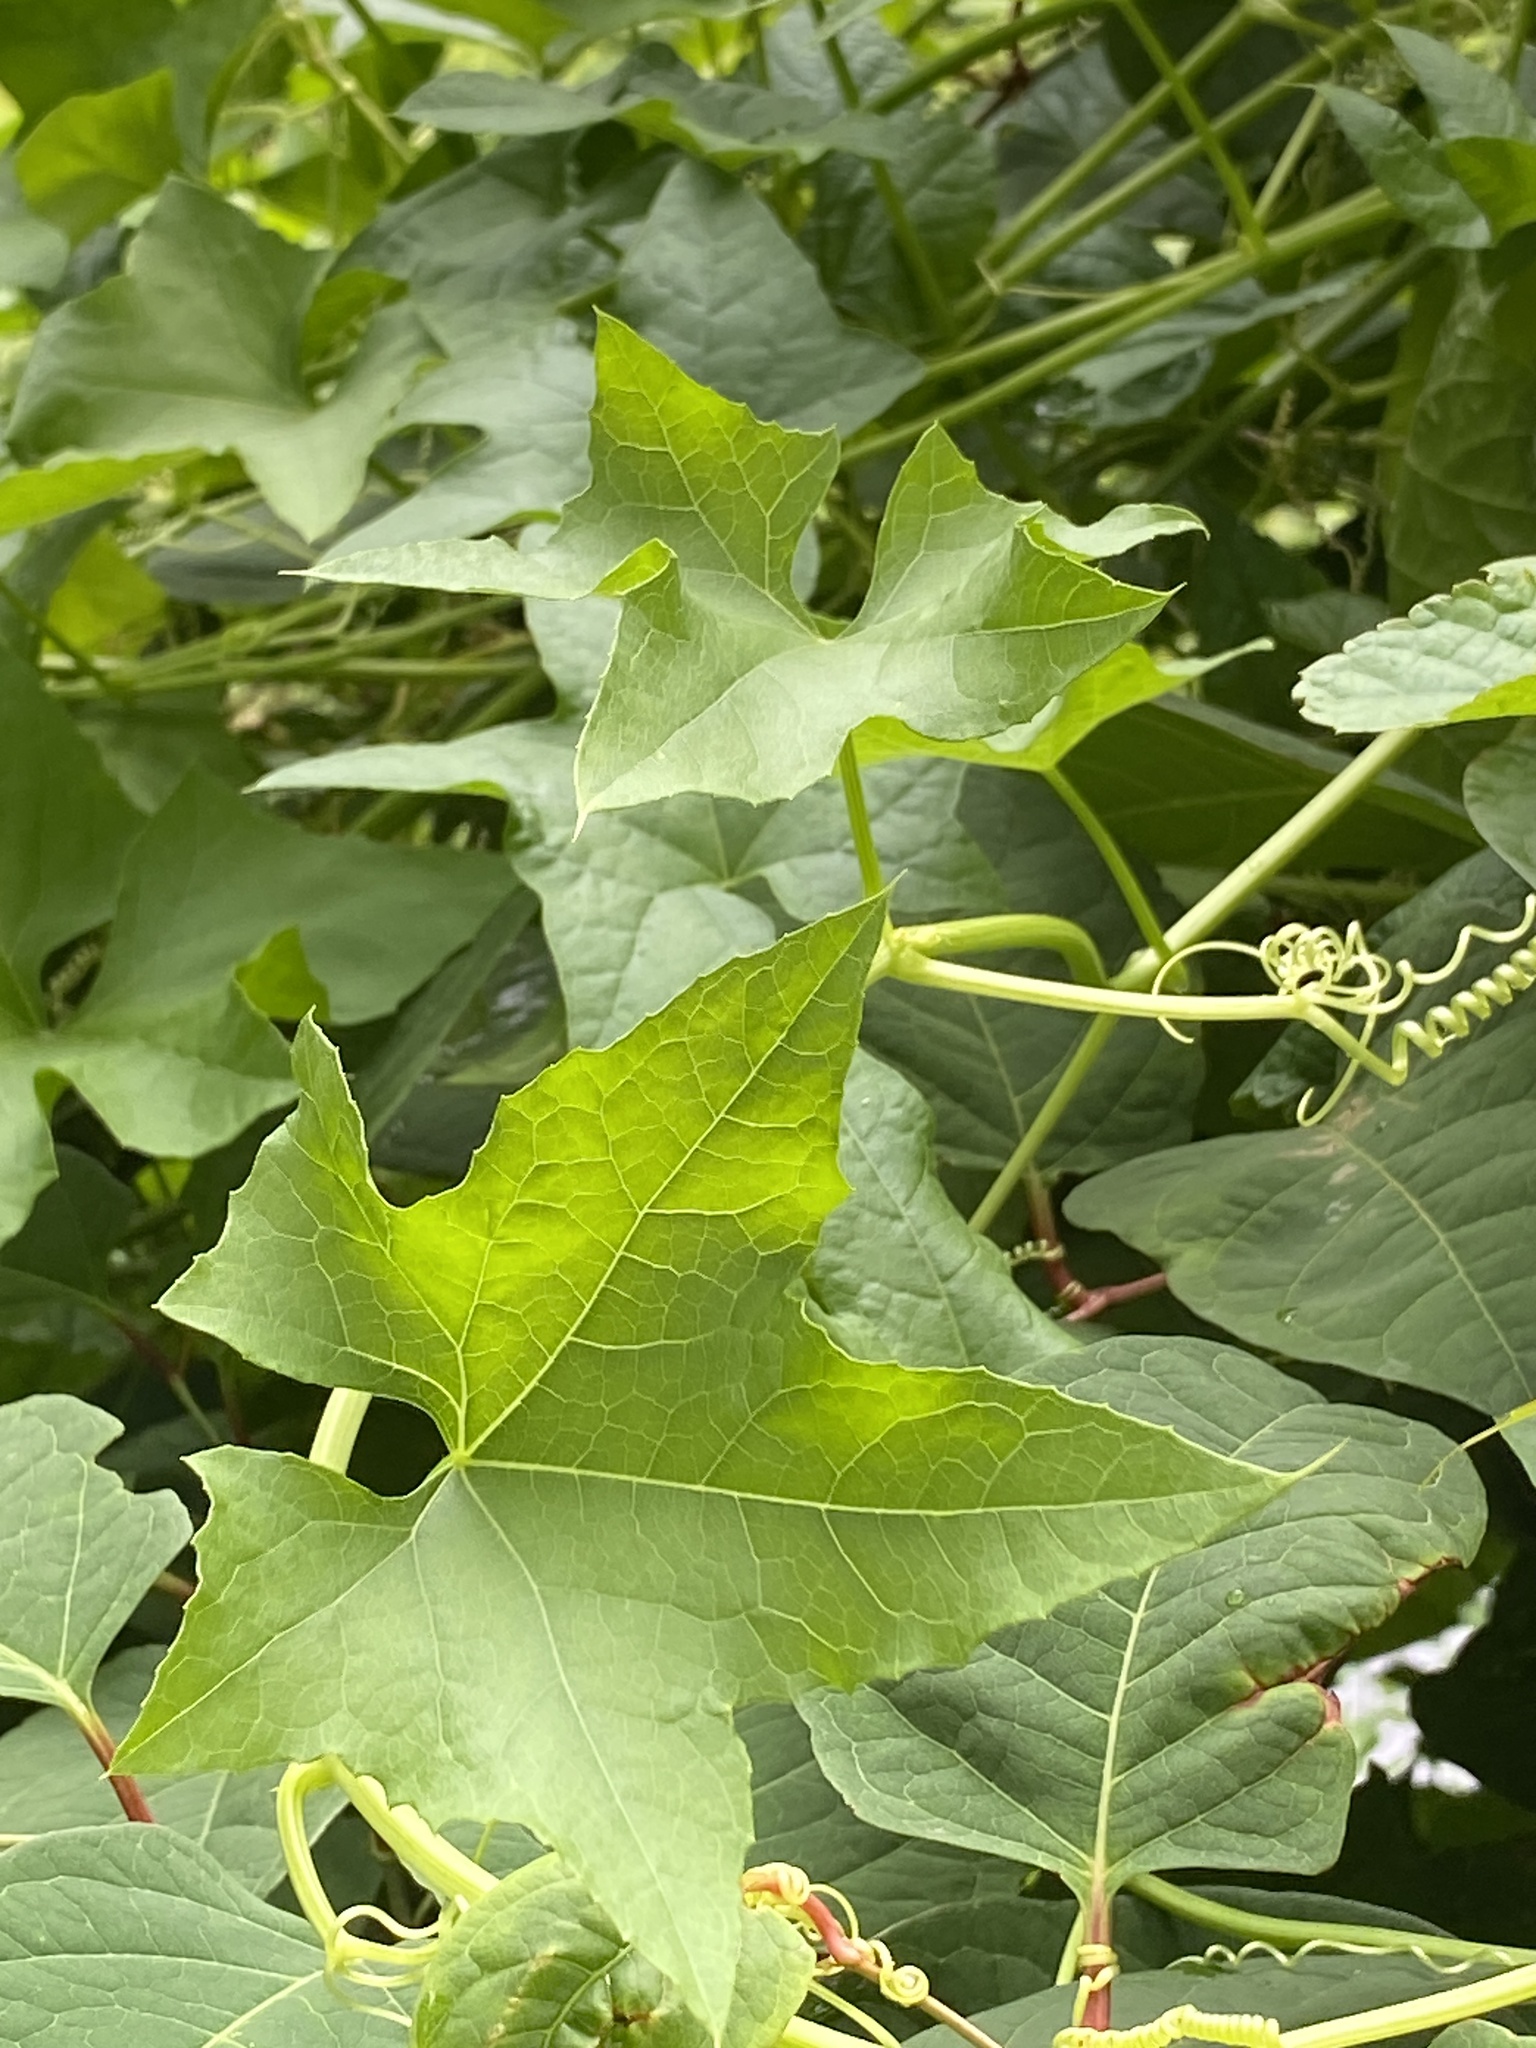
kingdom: Plantae
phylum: Tracheophyta
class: Magnoliopsida
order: Cucurbitales
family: Cucurbitaceae
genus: Echinocystis
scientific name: Echinocystis lobata
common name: Wild cucumber
